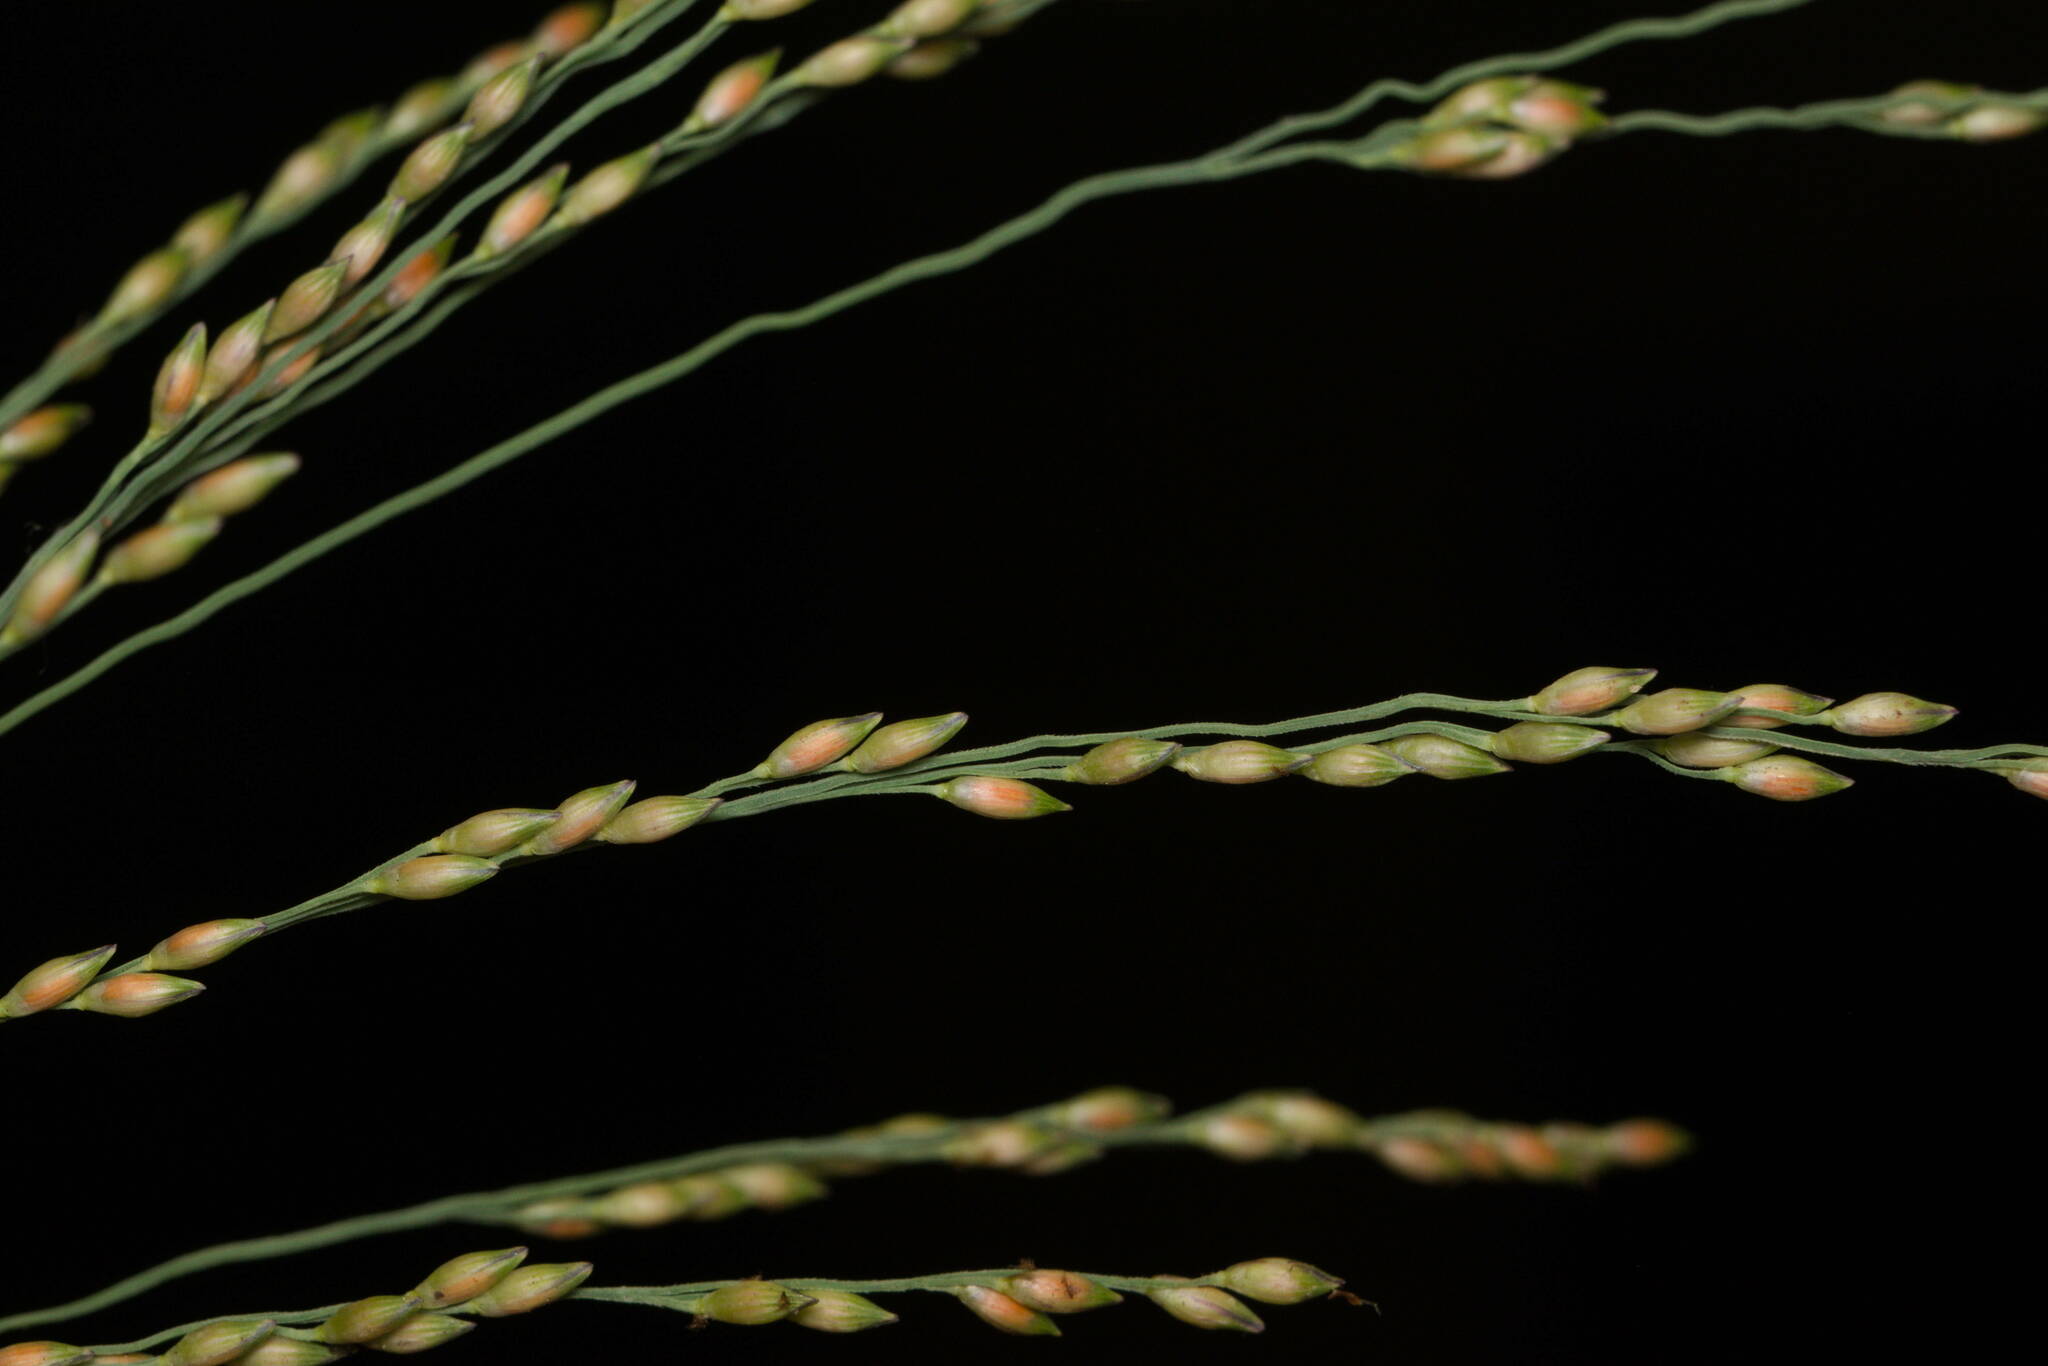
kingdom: Plantae
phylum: Tracheophyta
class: Liliopsida
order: Poales
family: Poaceae
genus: Panicum
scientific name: Panicum repens
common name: Torpedo grass
